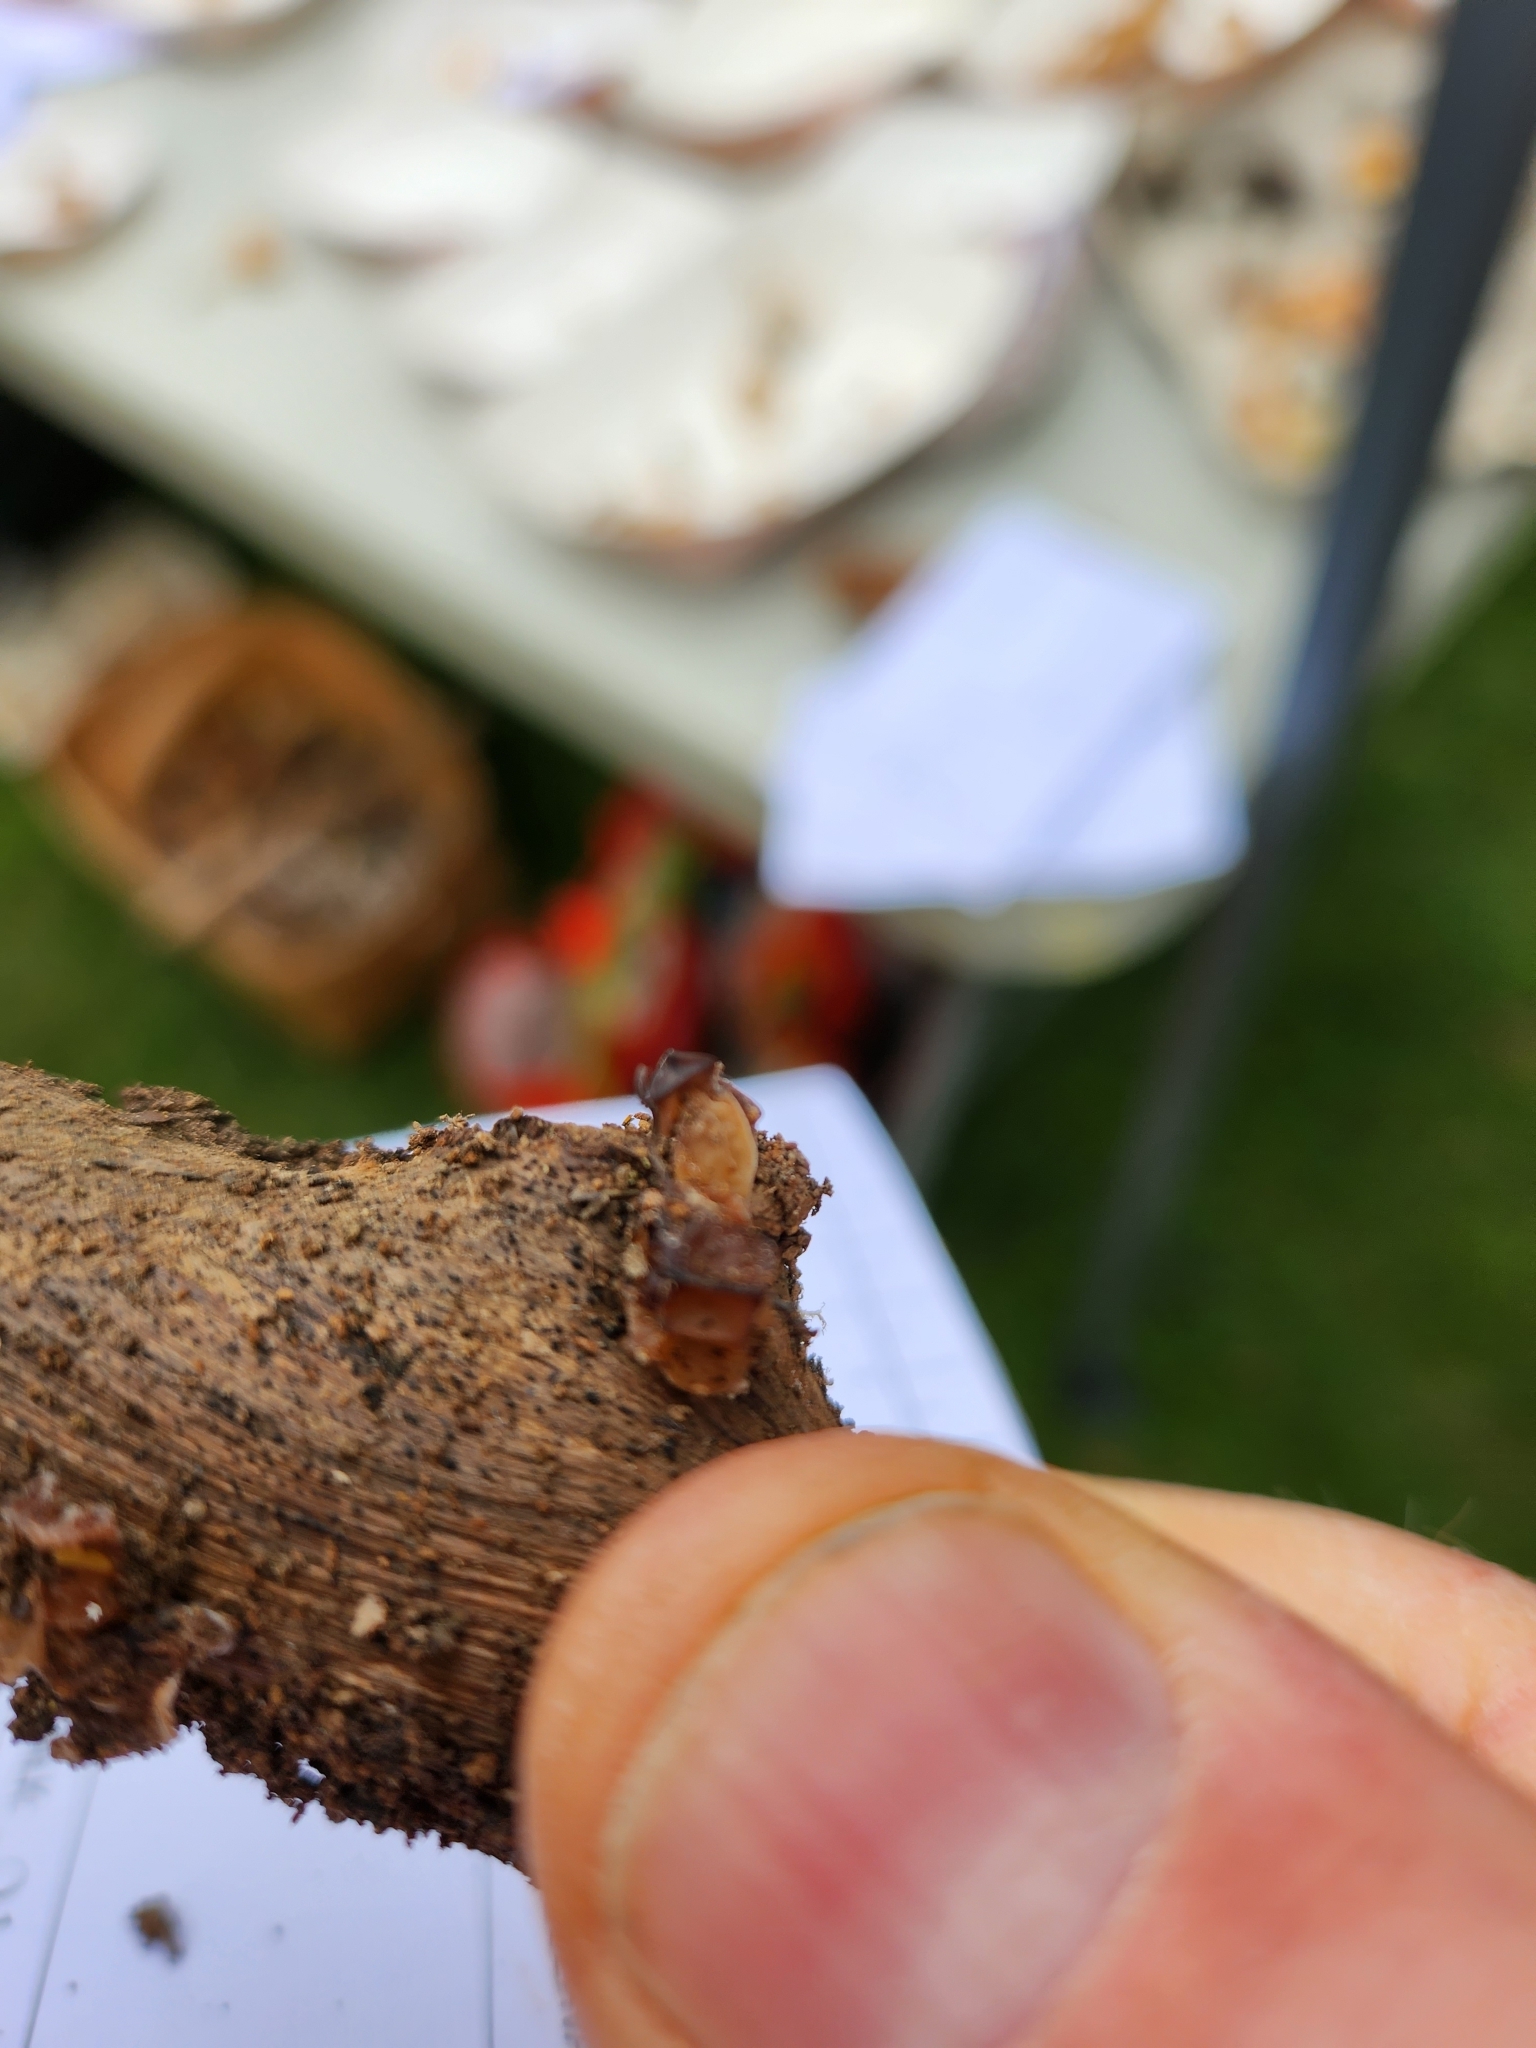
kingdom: Fungi
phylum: Basidiomycota
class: Agaricomycetes
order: Auriculariales
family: Auriculariaceae
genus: Auricularia
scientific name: Auricularia angiospermarum
